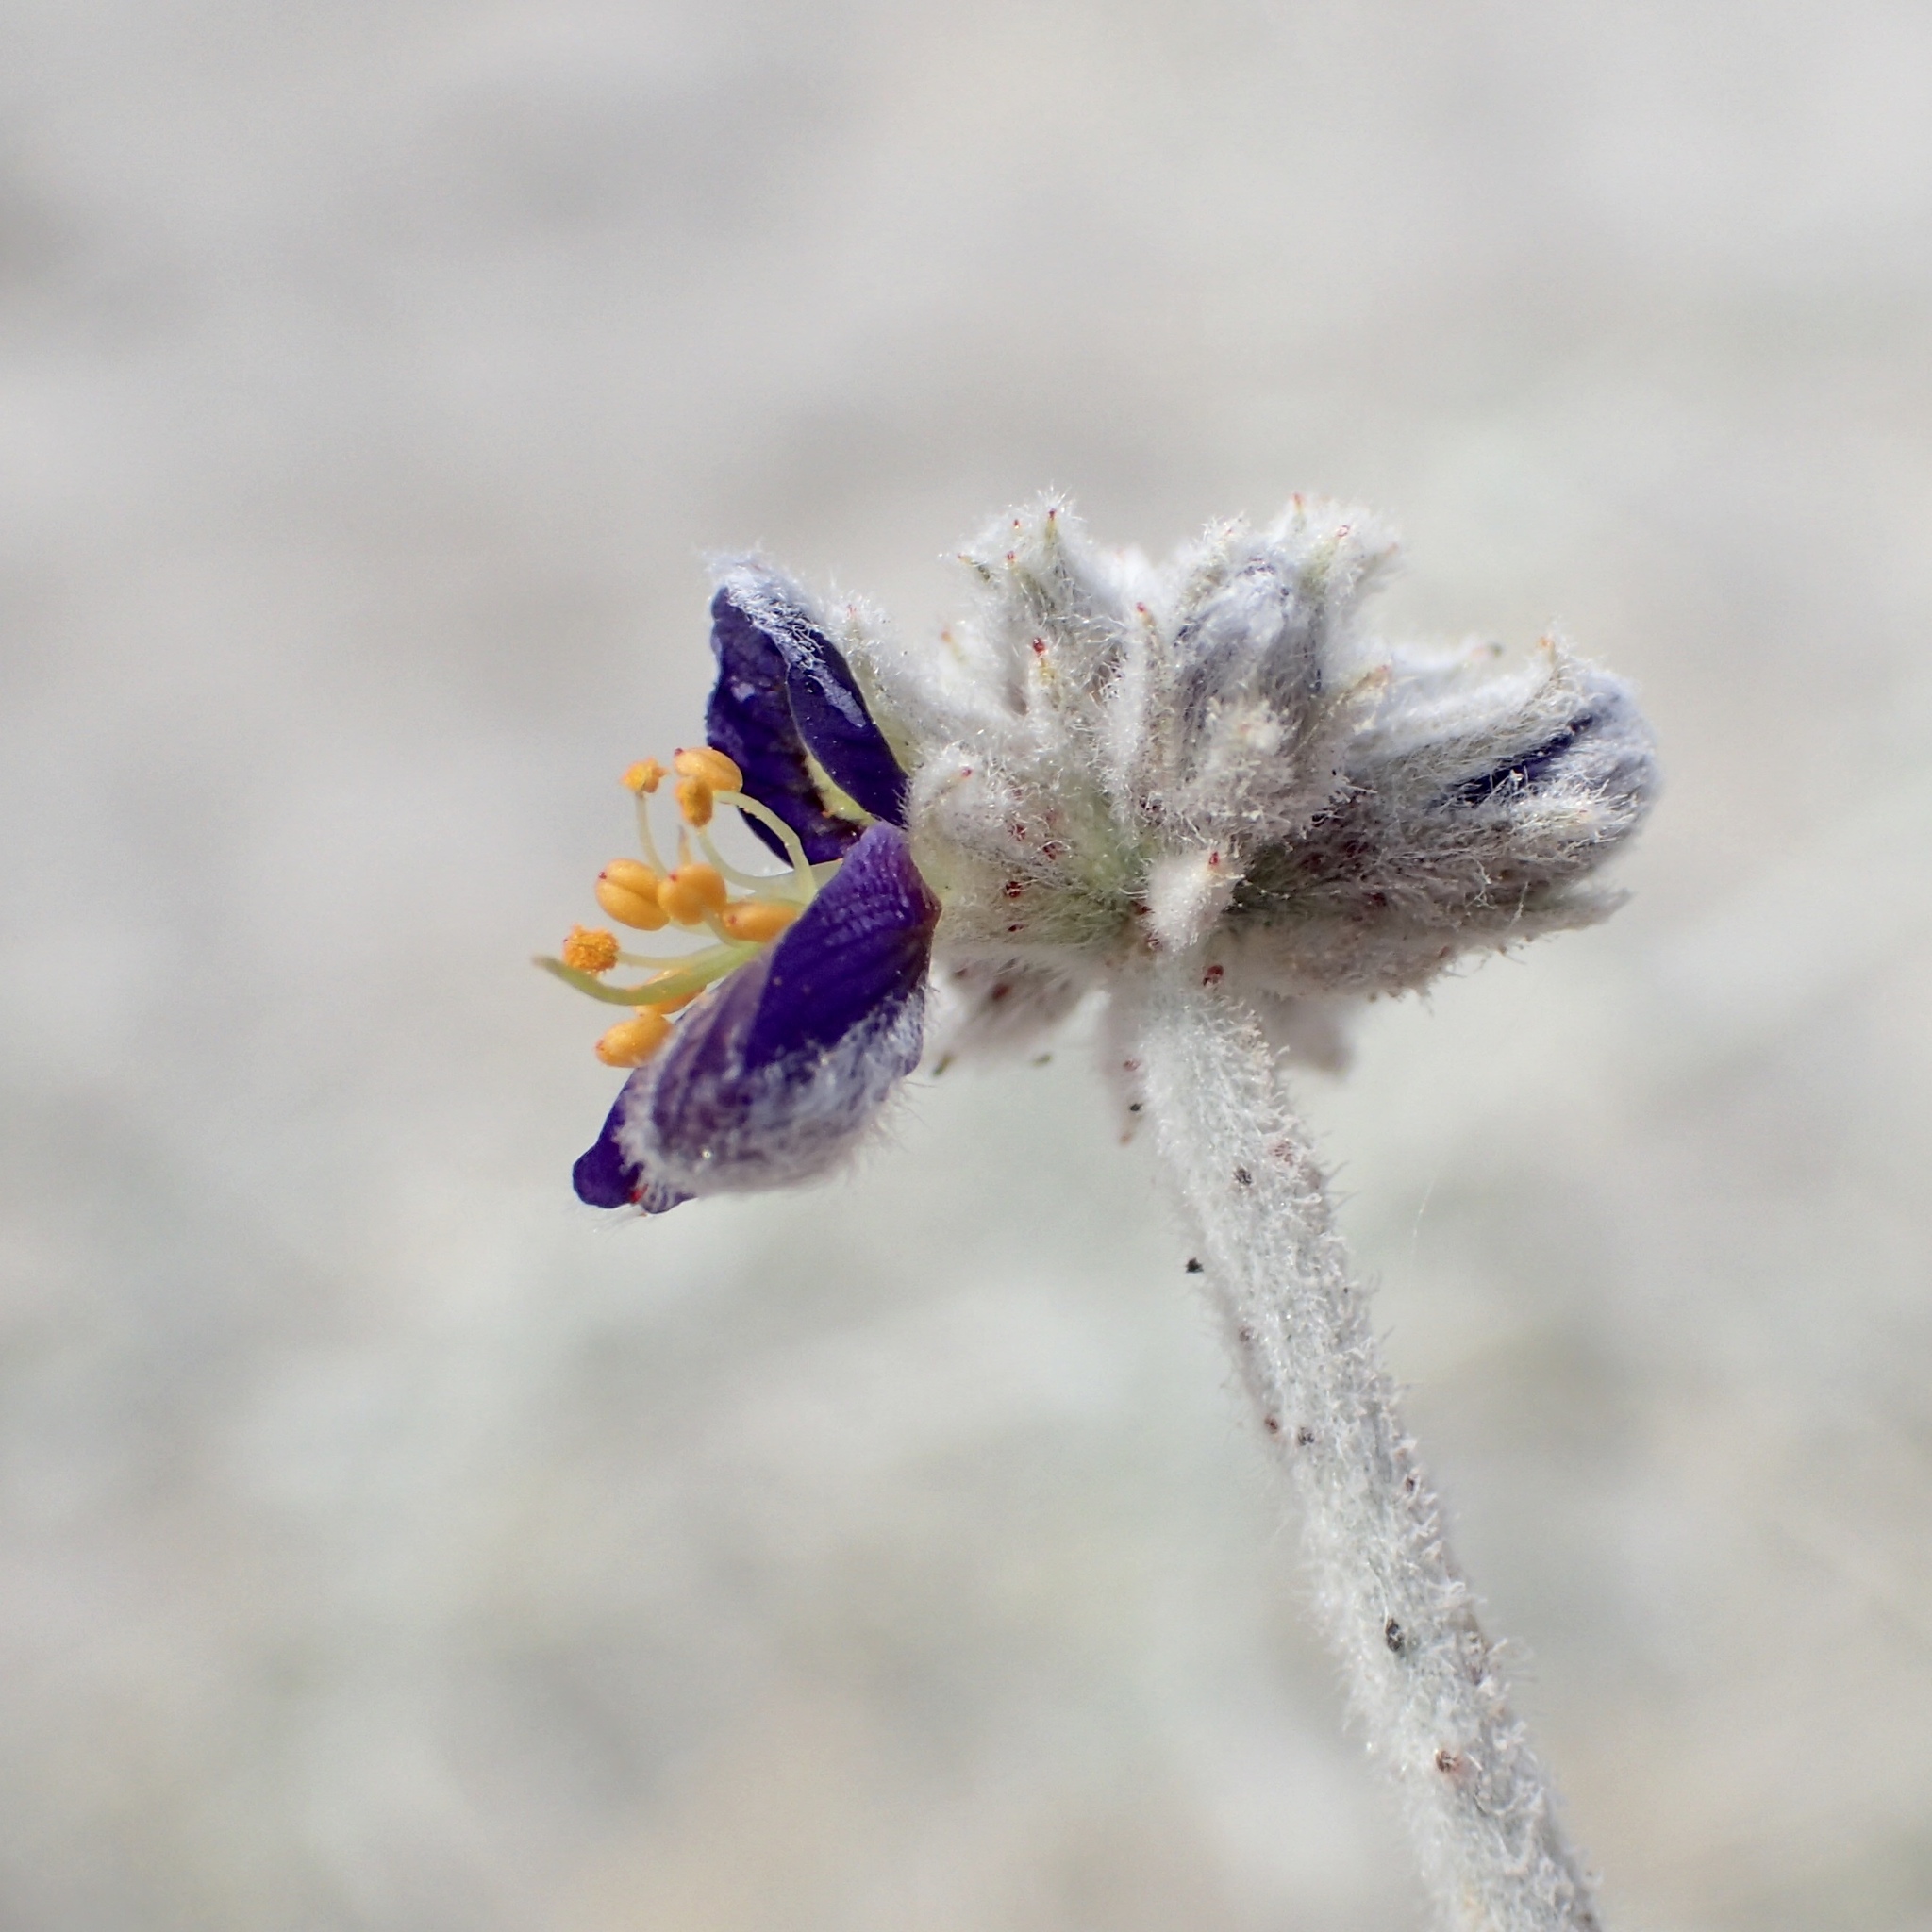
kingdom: Plantae
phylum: Tracheophyta
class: Magnoliopsida
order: Fabales
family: Fabaceae
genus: Psorothamnus
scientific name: Psorothamnus emoryi
